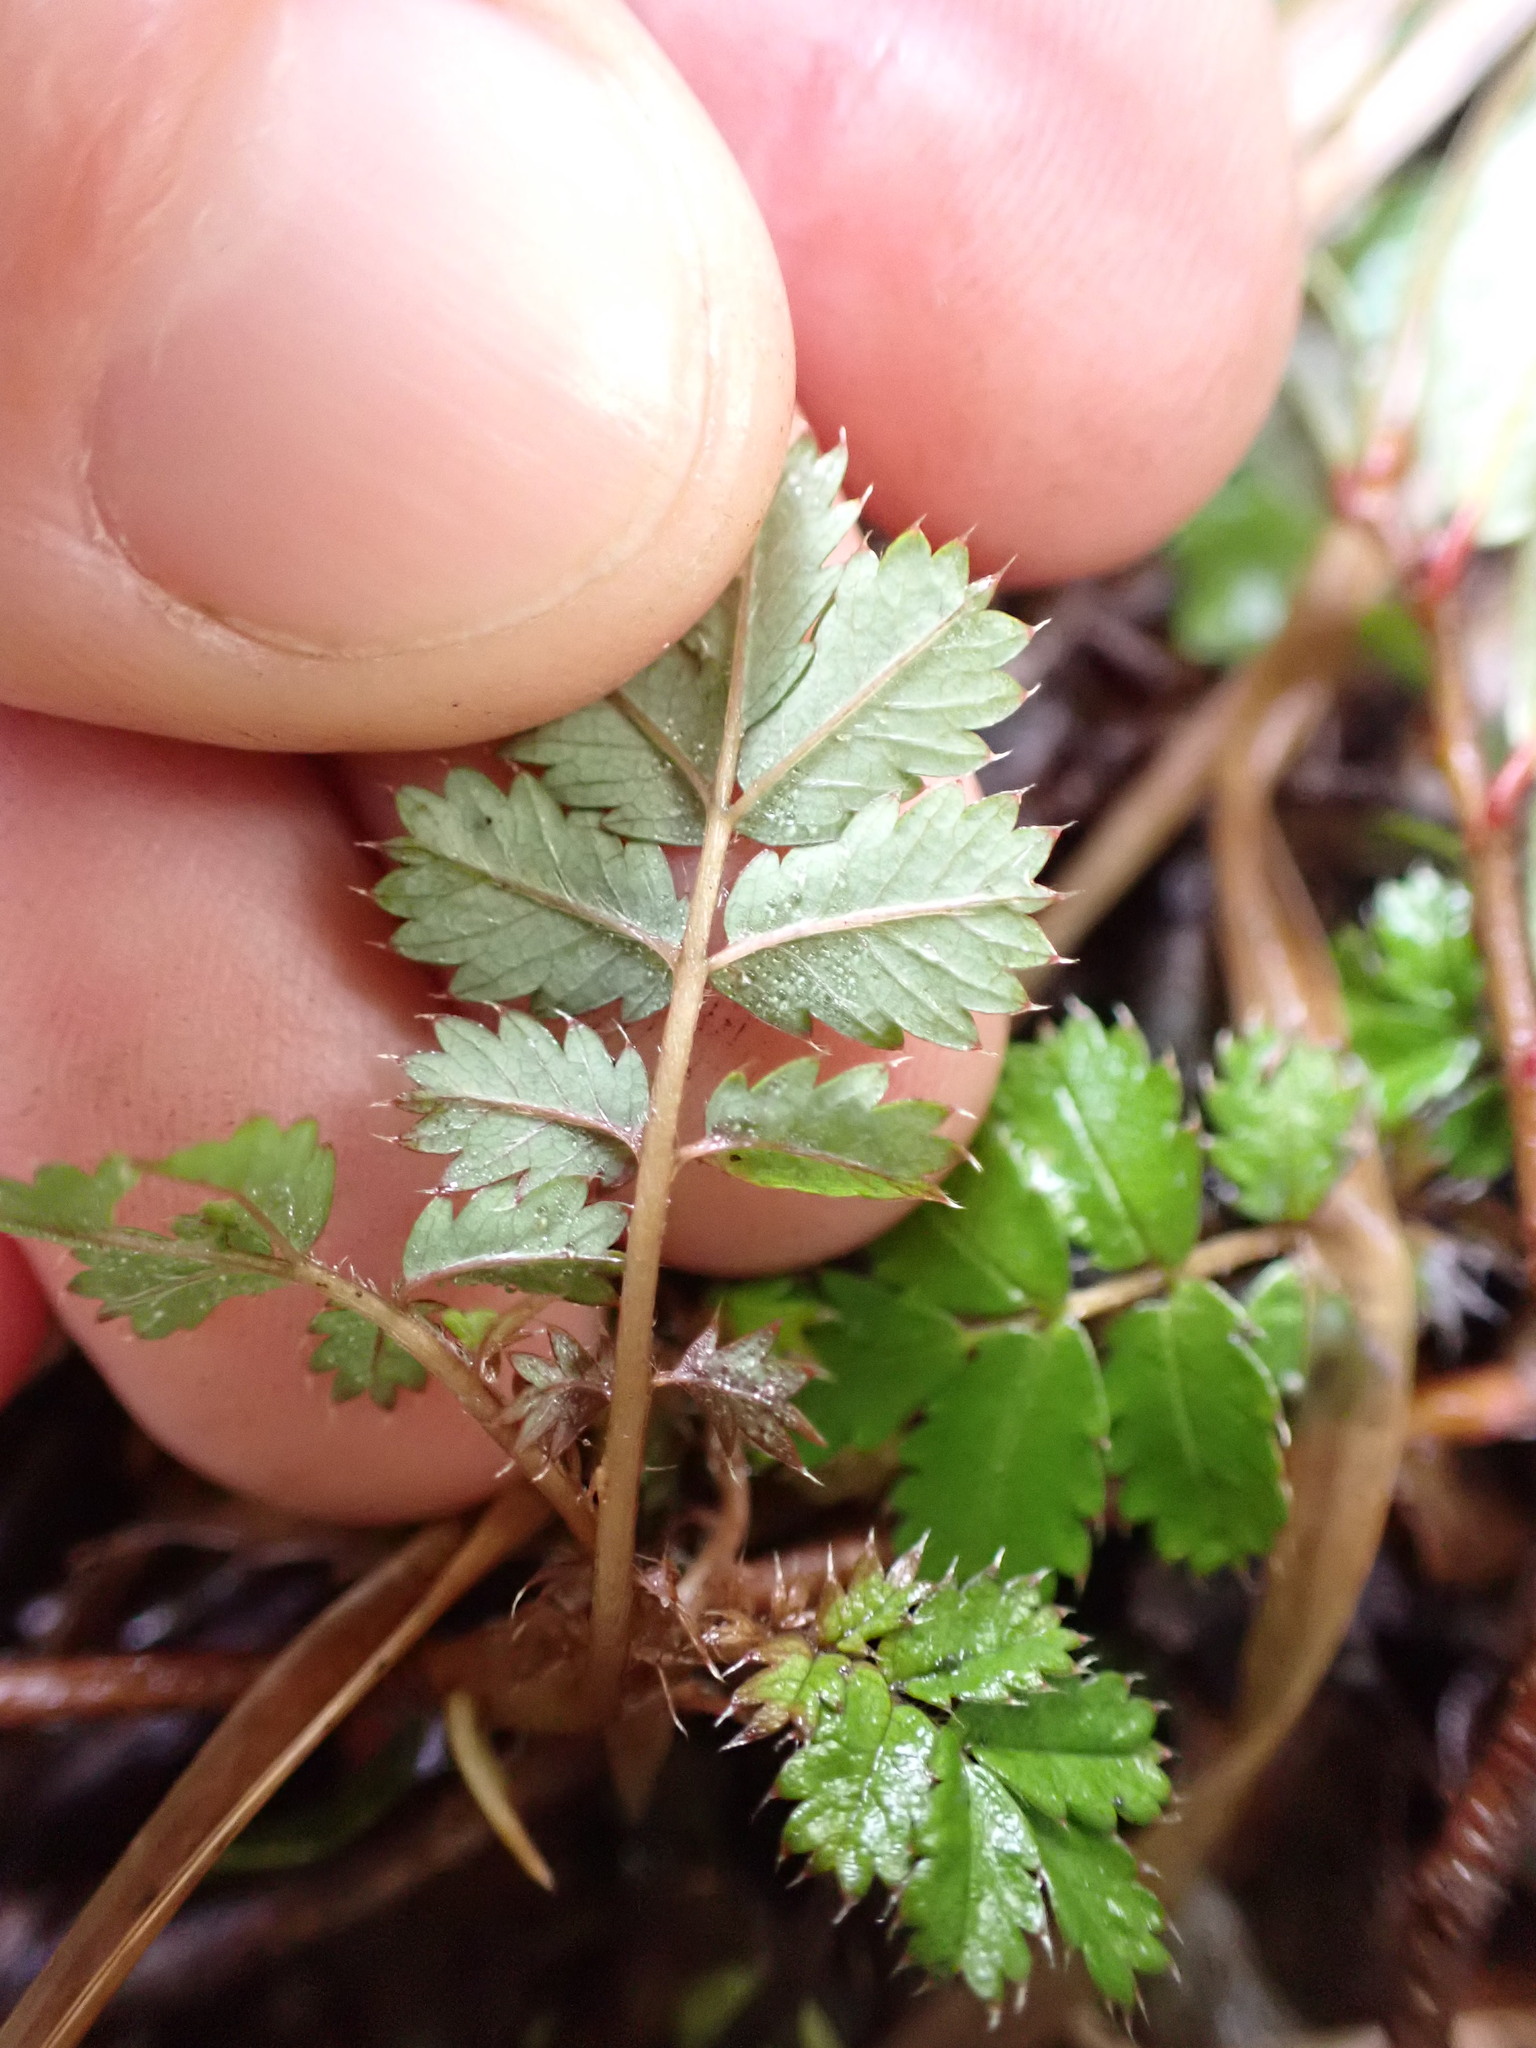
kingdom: Plantae
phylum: Tracheophyta
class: Magnoliopsida
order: Rosales
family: Rosaceae
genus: Acaena
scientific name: Acaena anserinifolia
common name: Bronze pirri-pirri-bur
